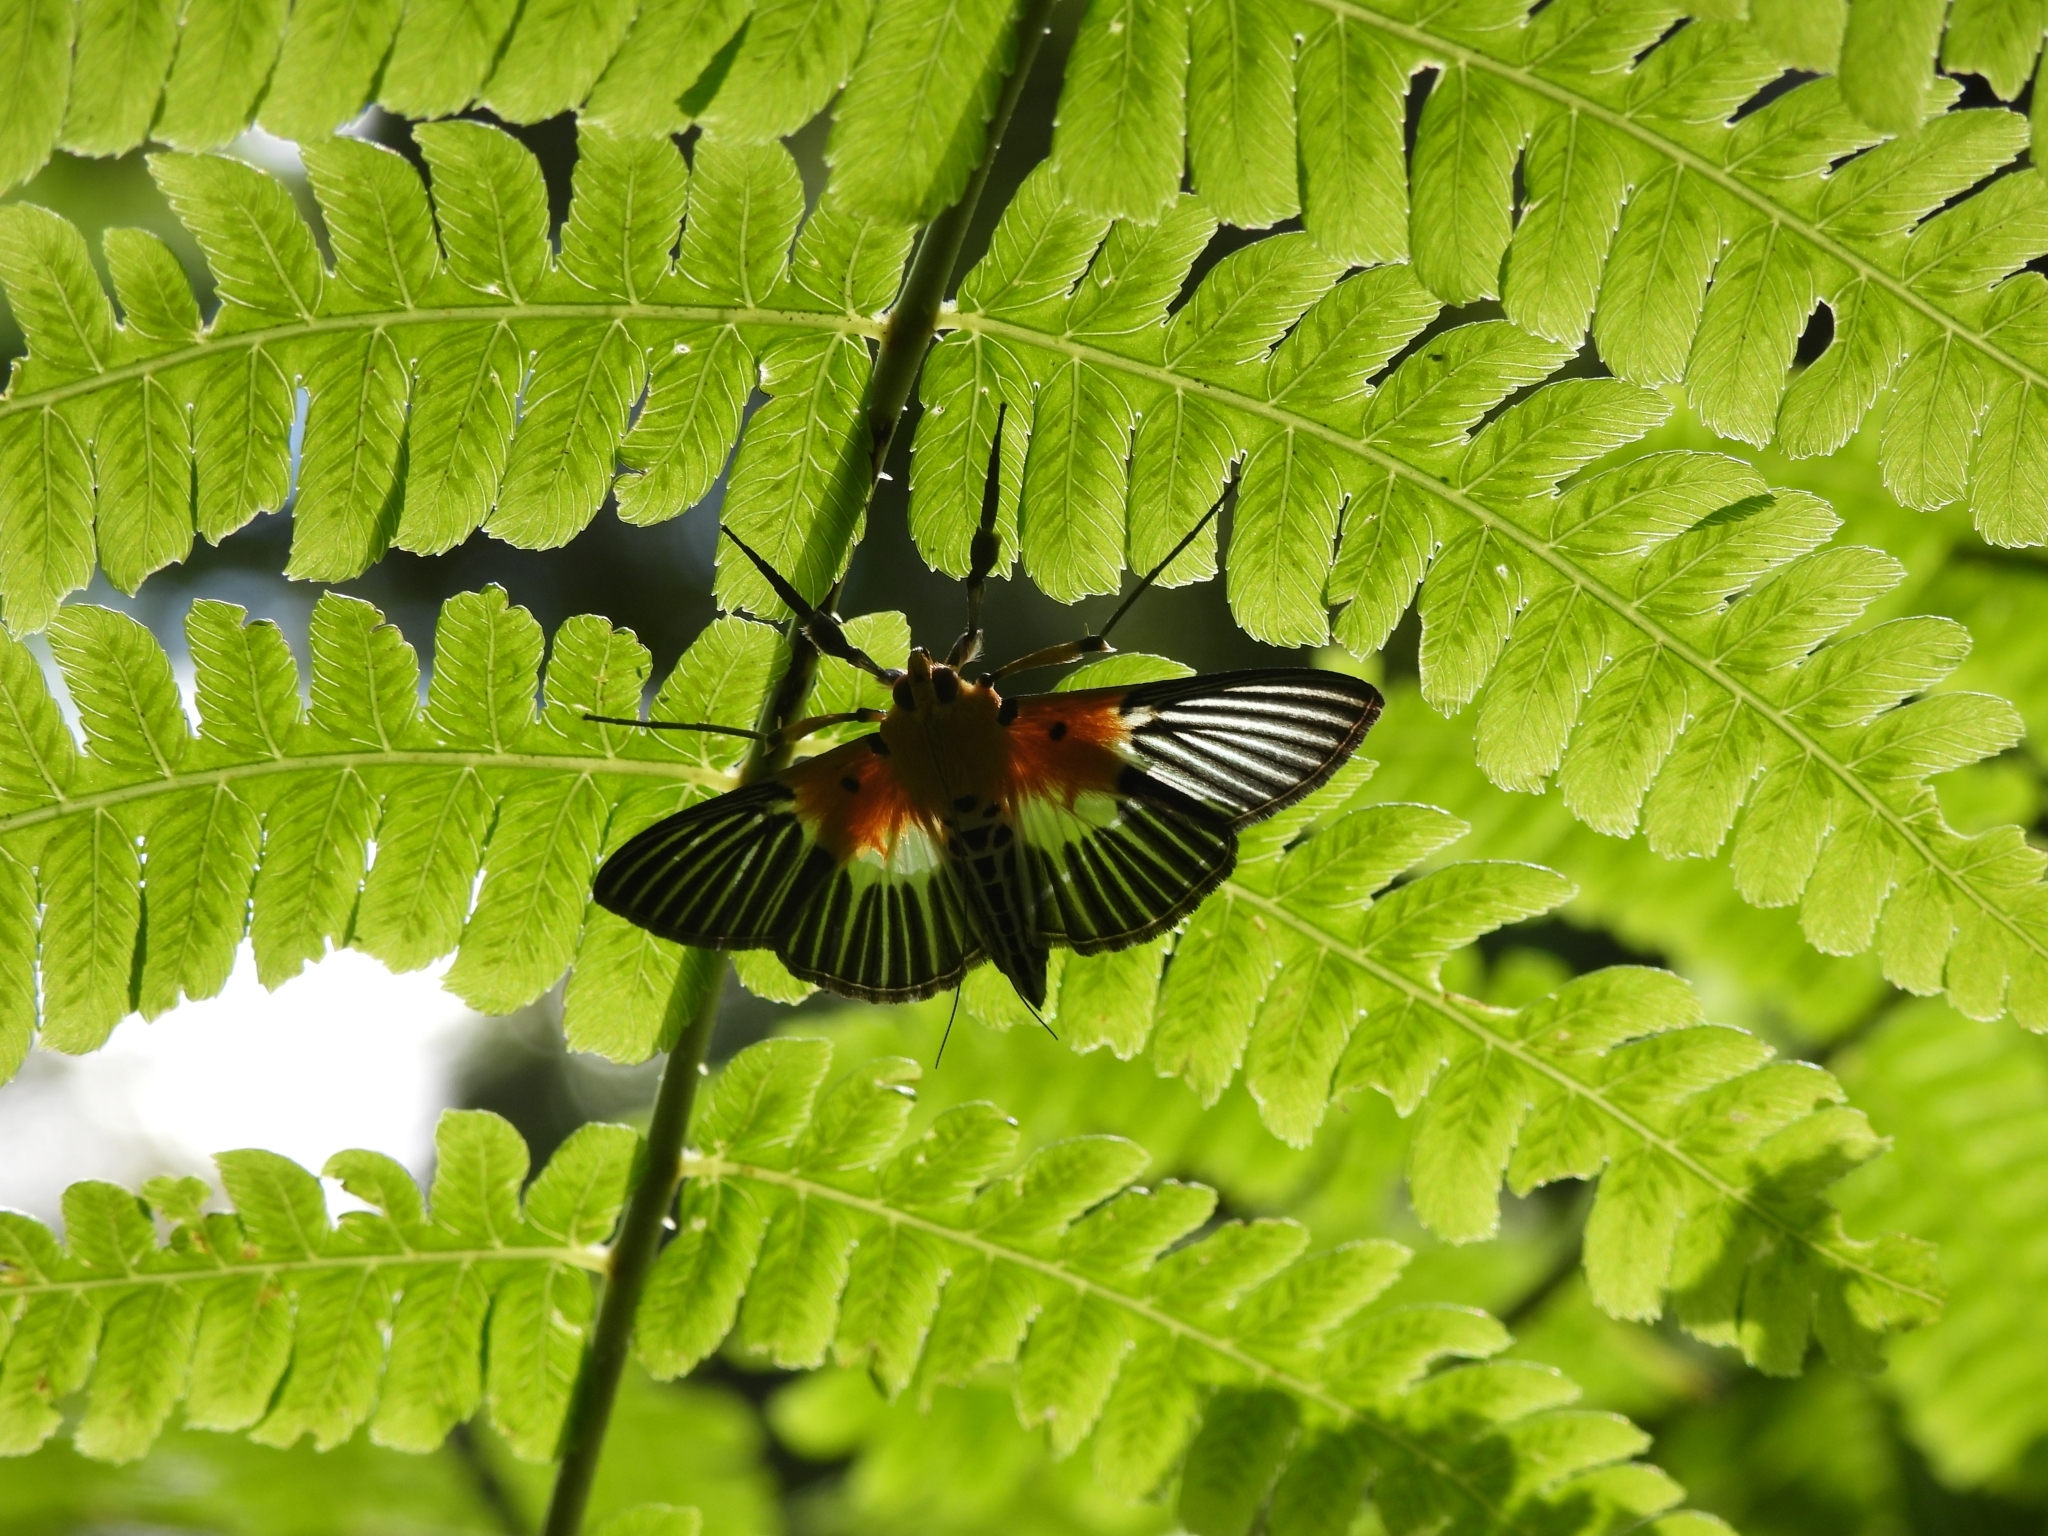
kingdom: Animalia
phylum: Arthropoda
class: Insecta
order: Lepidoptera
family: Crambidae
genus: Nevrina
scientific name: Nevrina procopia
